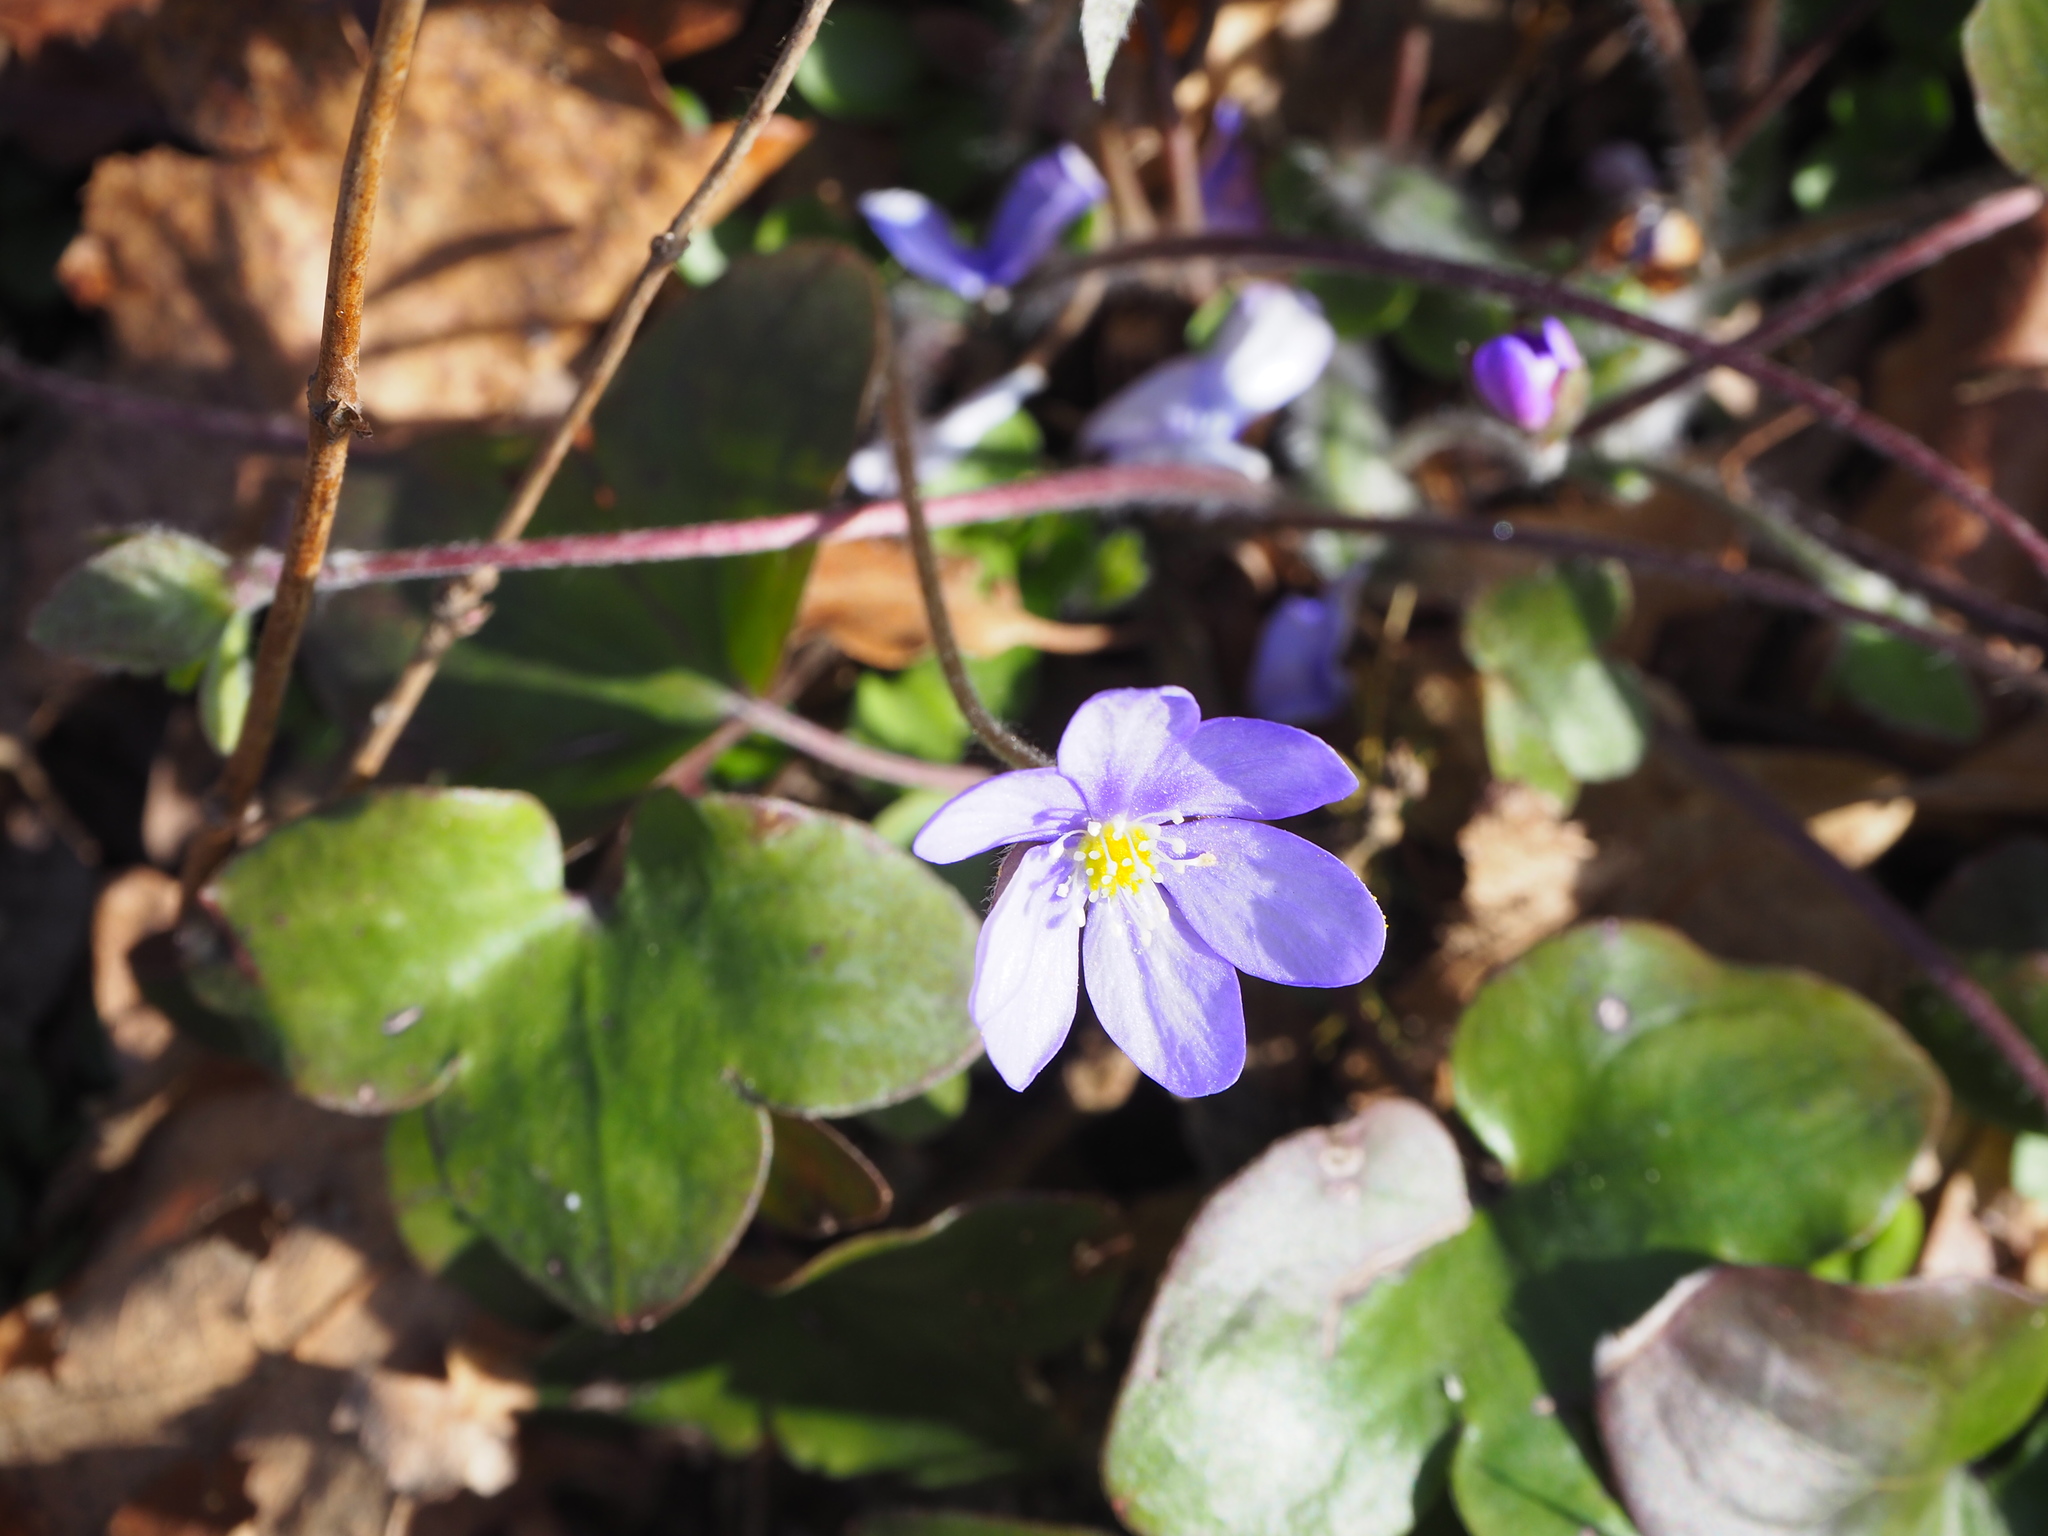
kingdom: Plantae
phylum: Tracheophyta
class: Magnoliopsida
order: Ranunculales
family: Ranunculaceae
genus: Hepatica
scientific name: Hepatica nobilis
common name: Liverleaf
